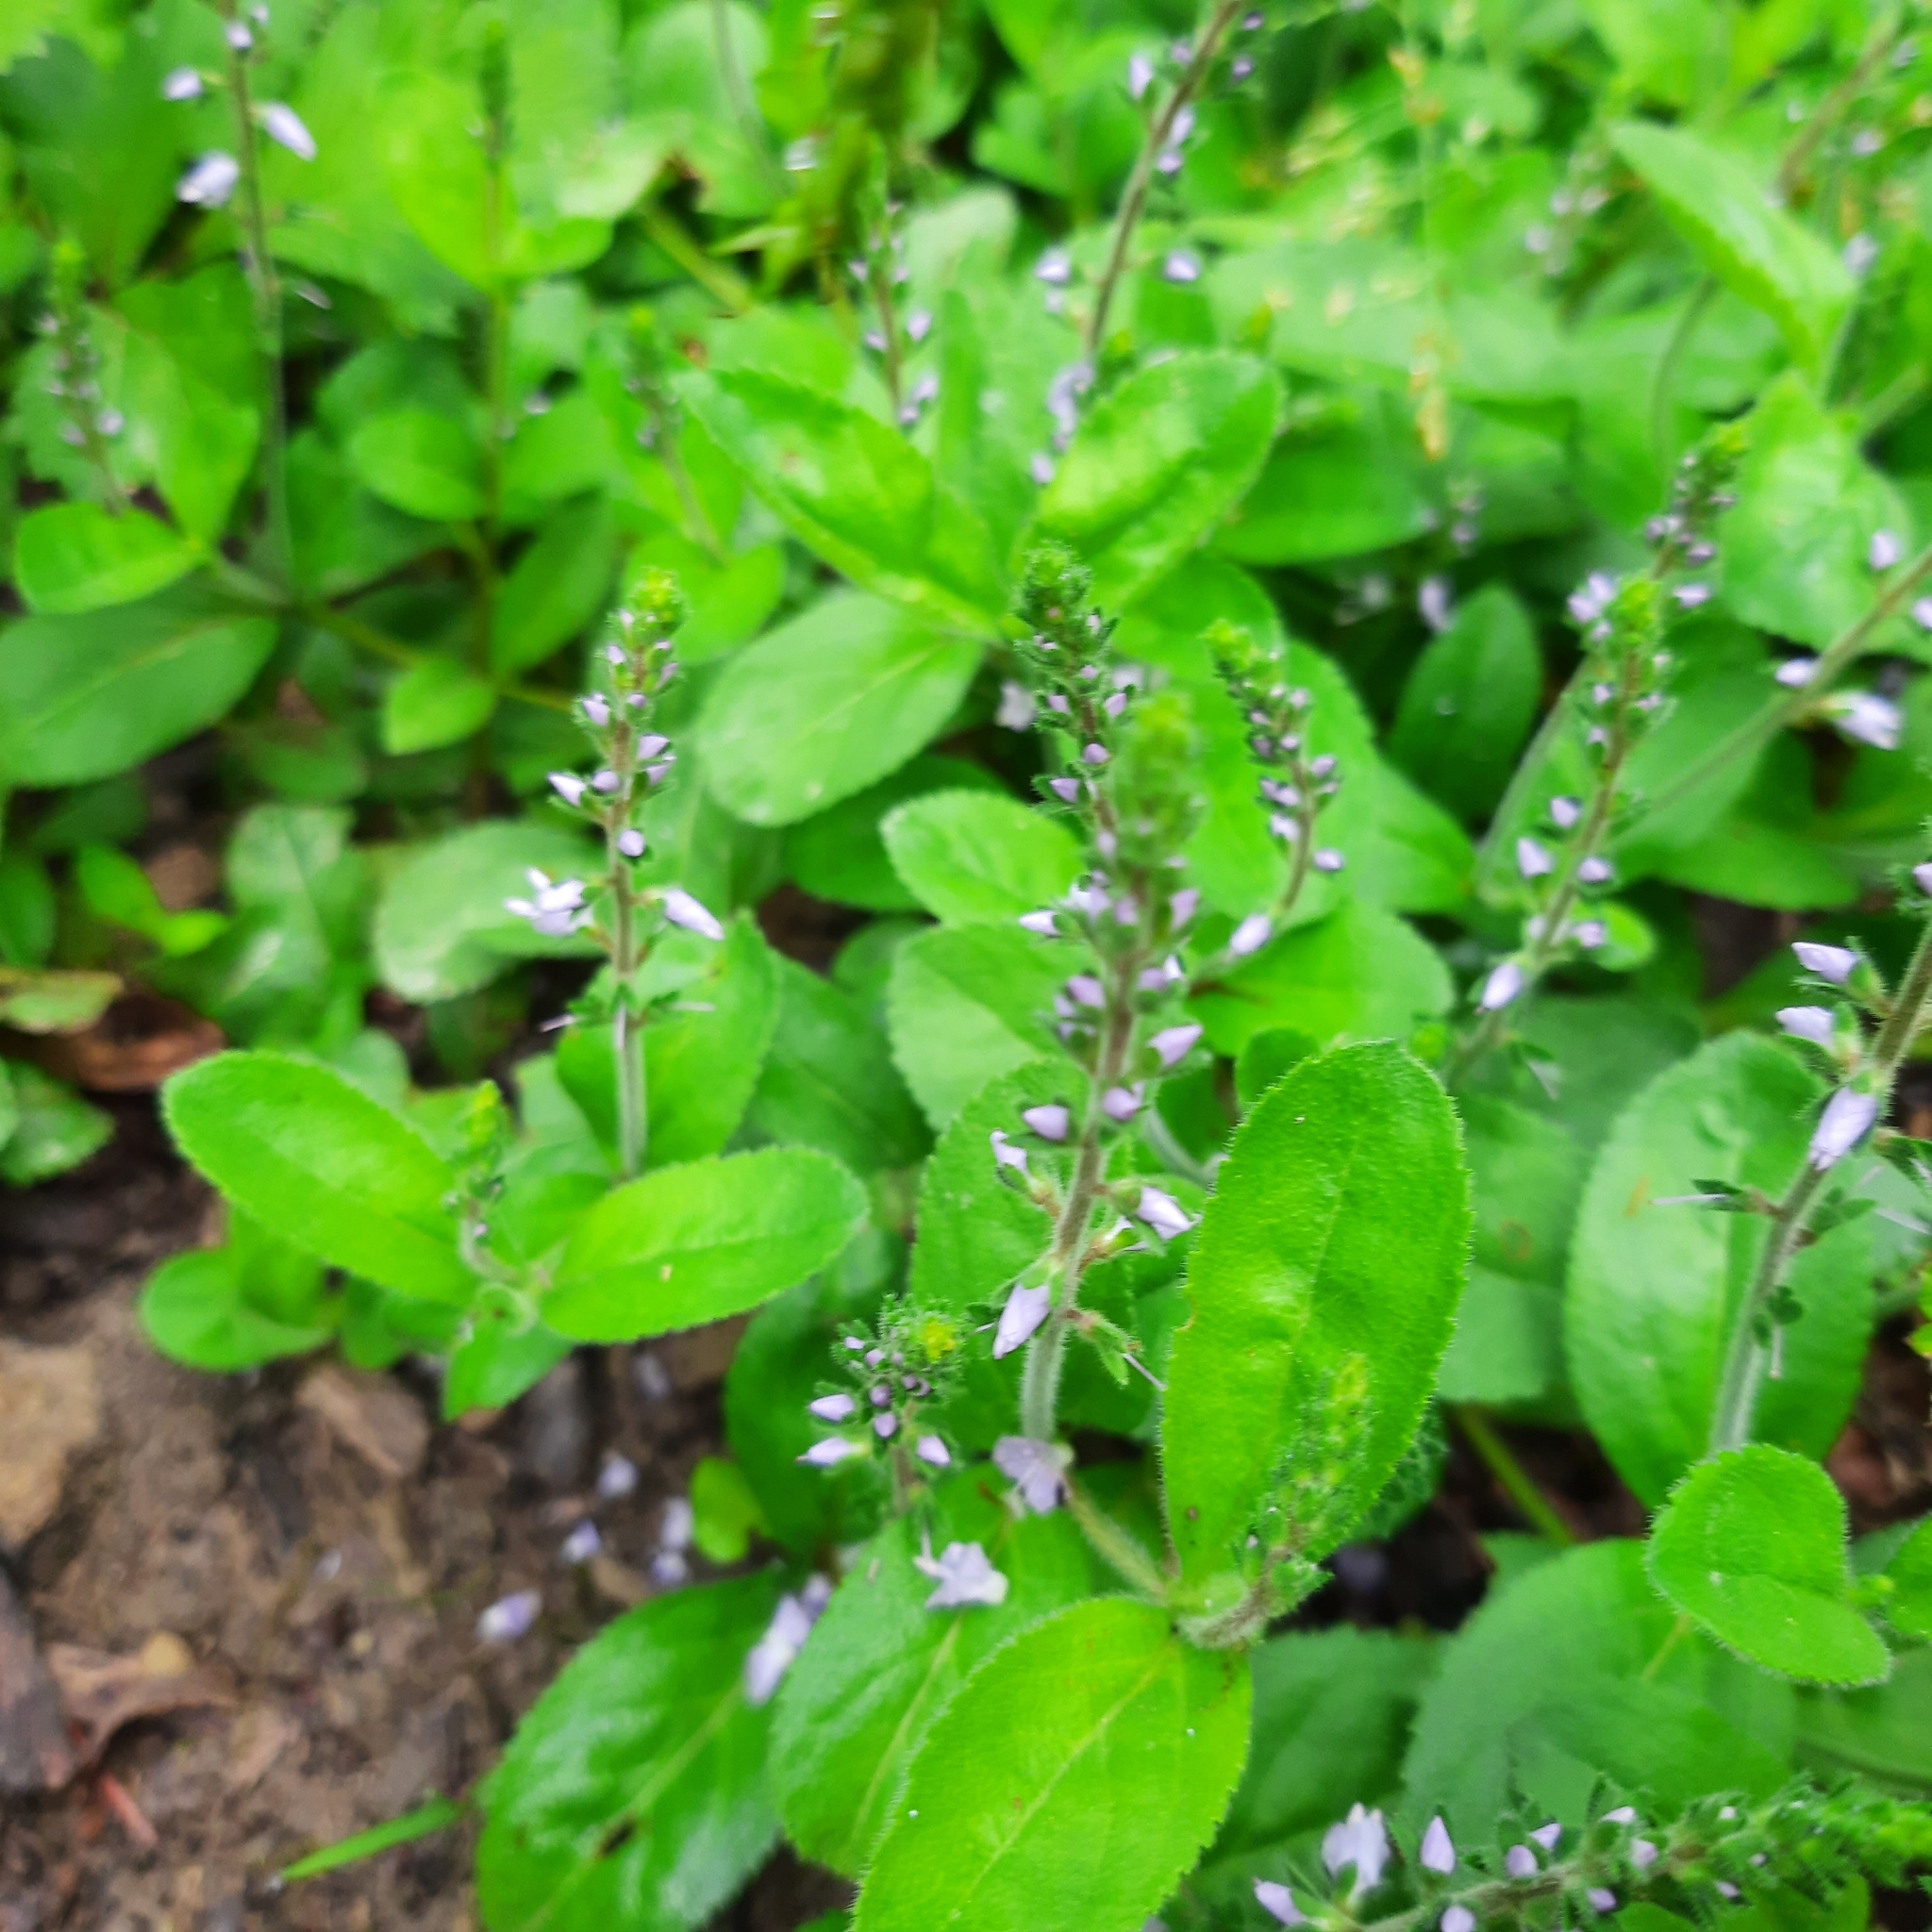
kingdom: Plantae
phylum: Tracheophyta
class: Magnoliopsida
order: Lamiales
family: Plantaginaceae
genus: Veronica
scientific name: Veronica officinalis
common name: Common speedwell
